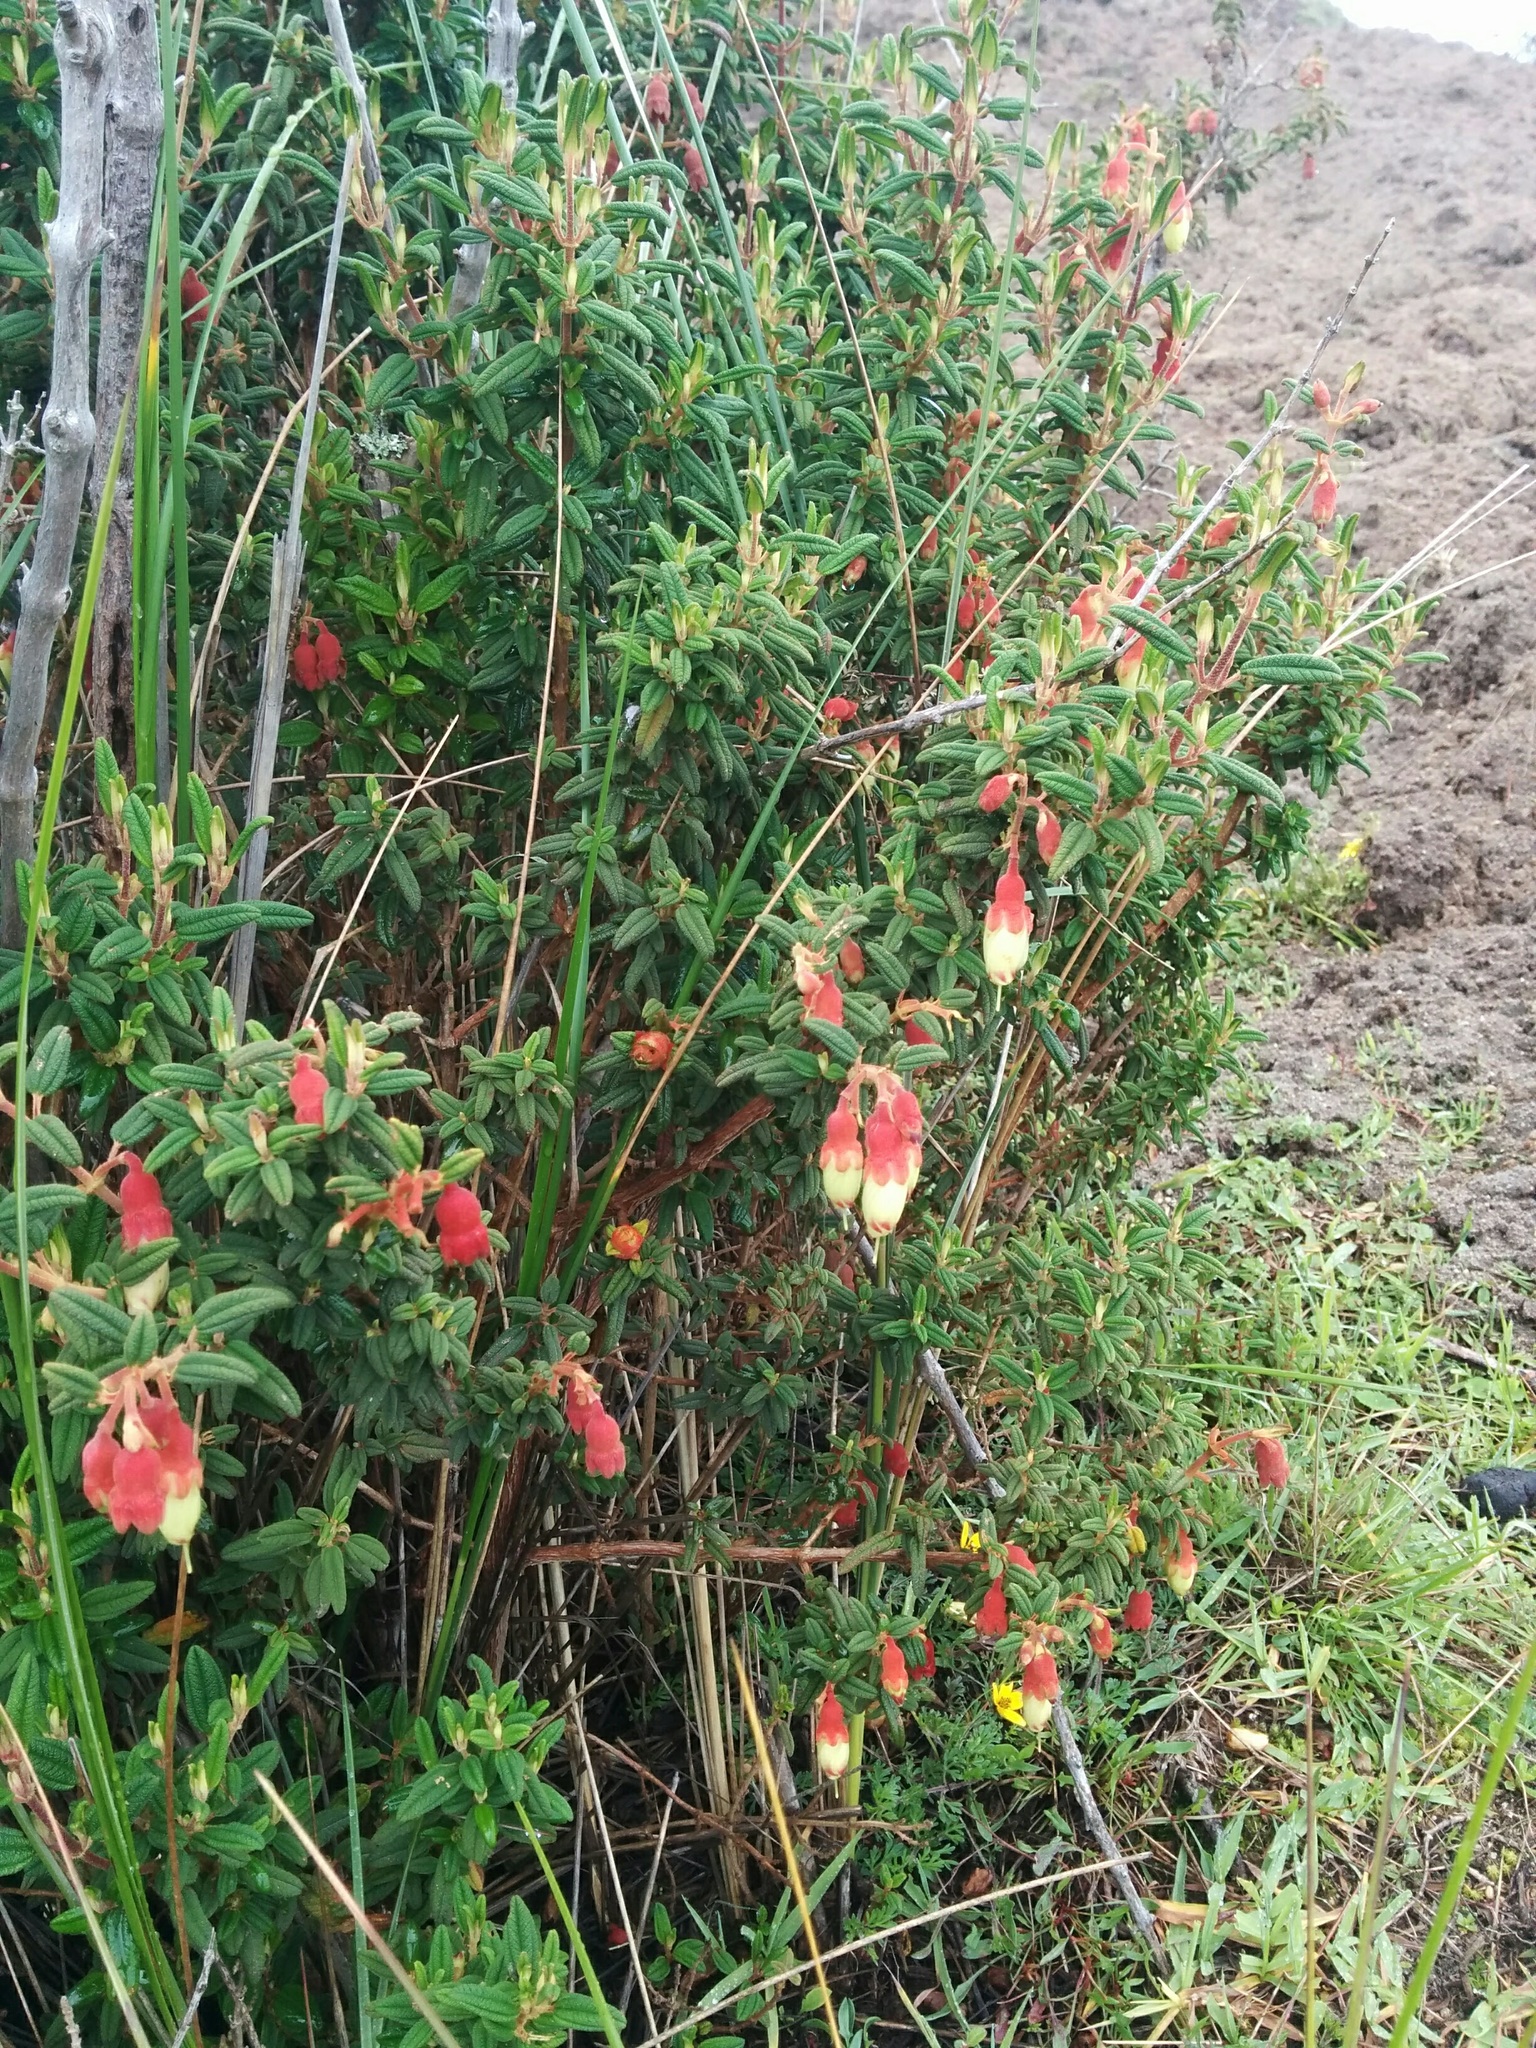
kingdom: Plantae
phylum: Tracheophyta
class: Magnoliopsida
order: Myrtales
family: Melastomataceae
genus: Brachyotum
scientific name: Brachyotum ledifolium
